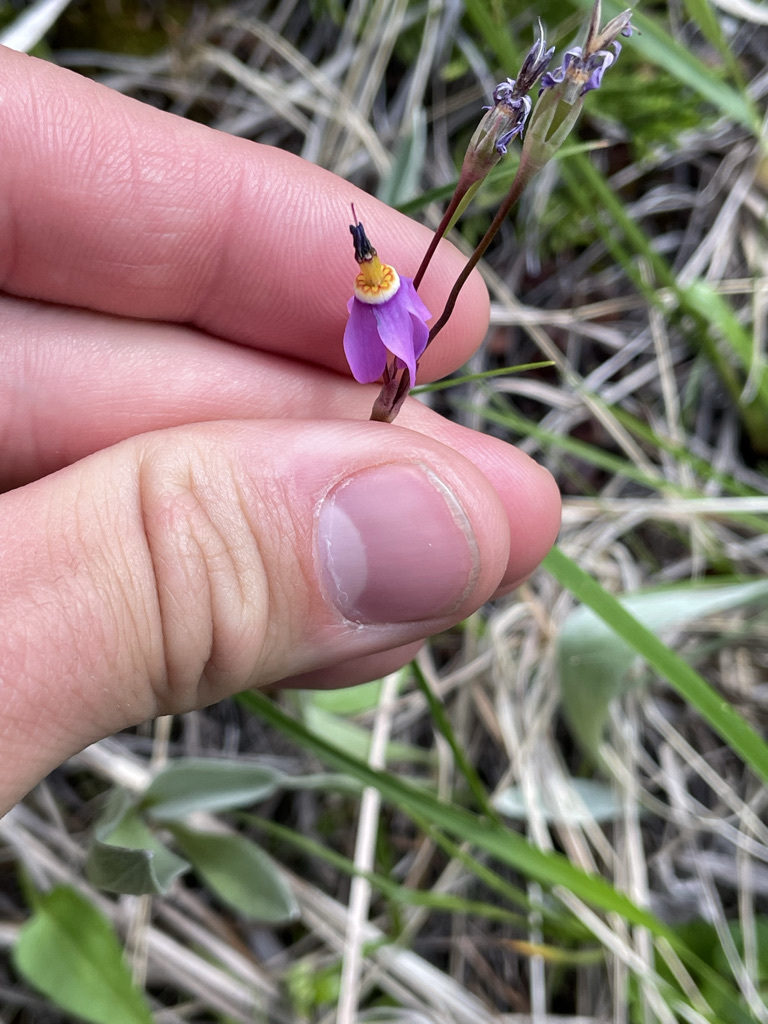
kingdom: Plantae
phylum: Tracheophyta
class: Magnoliopsida
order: Ericales
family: Primulaceae
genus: Dodecatheon
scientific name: Dodecatheon pulchellum
